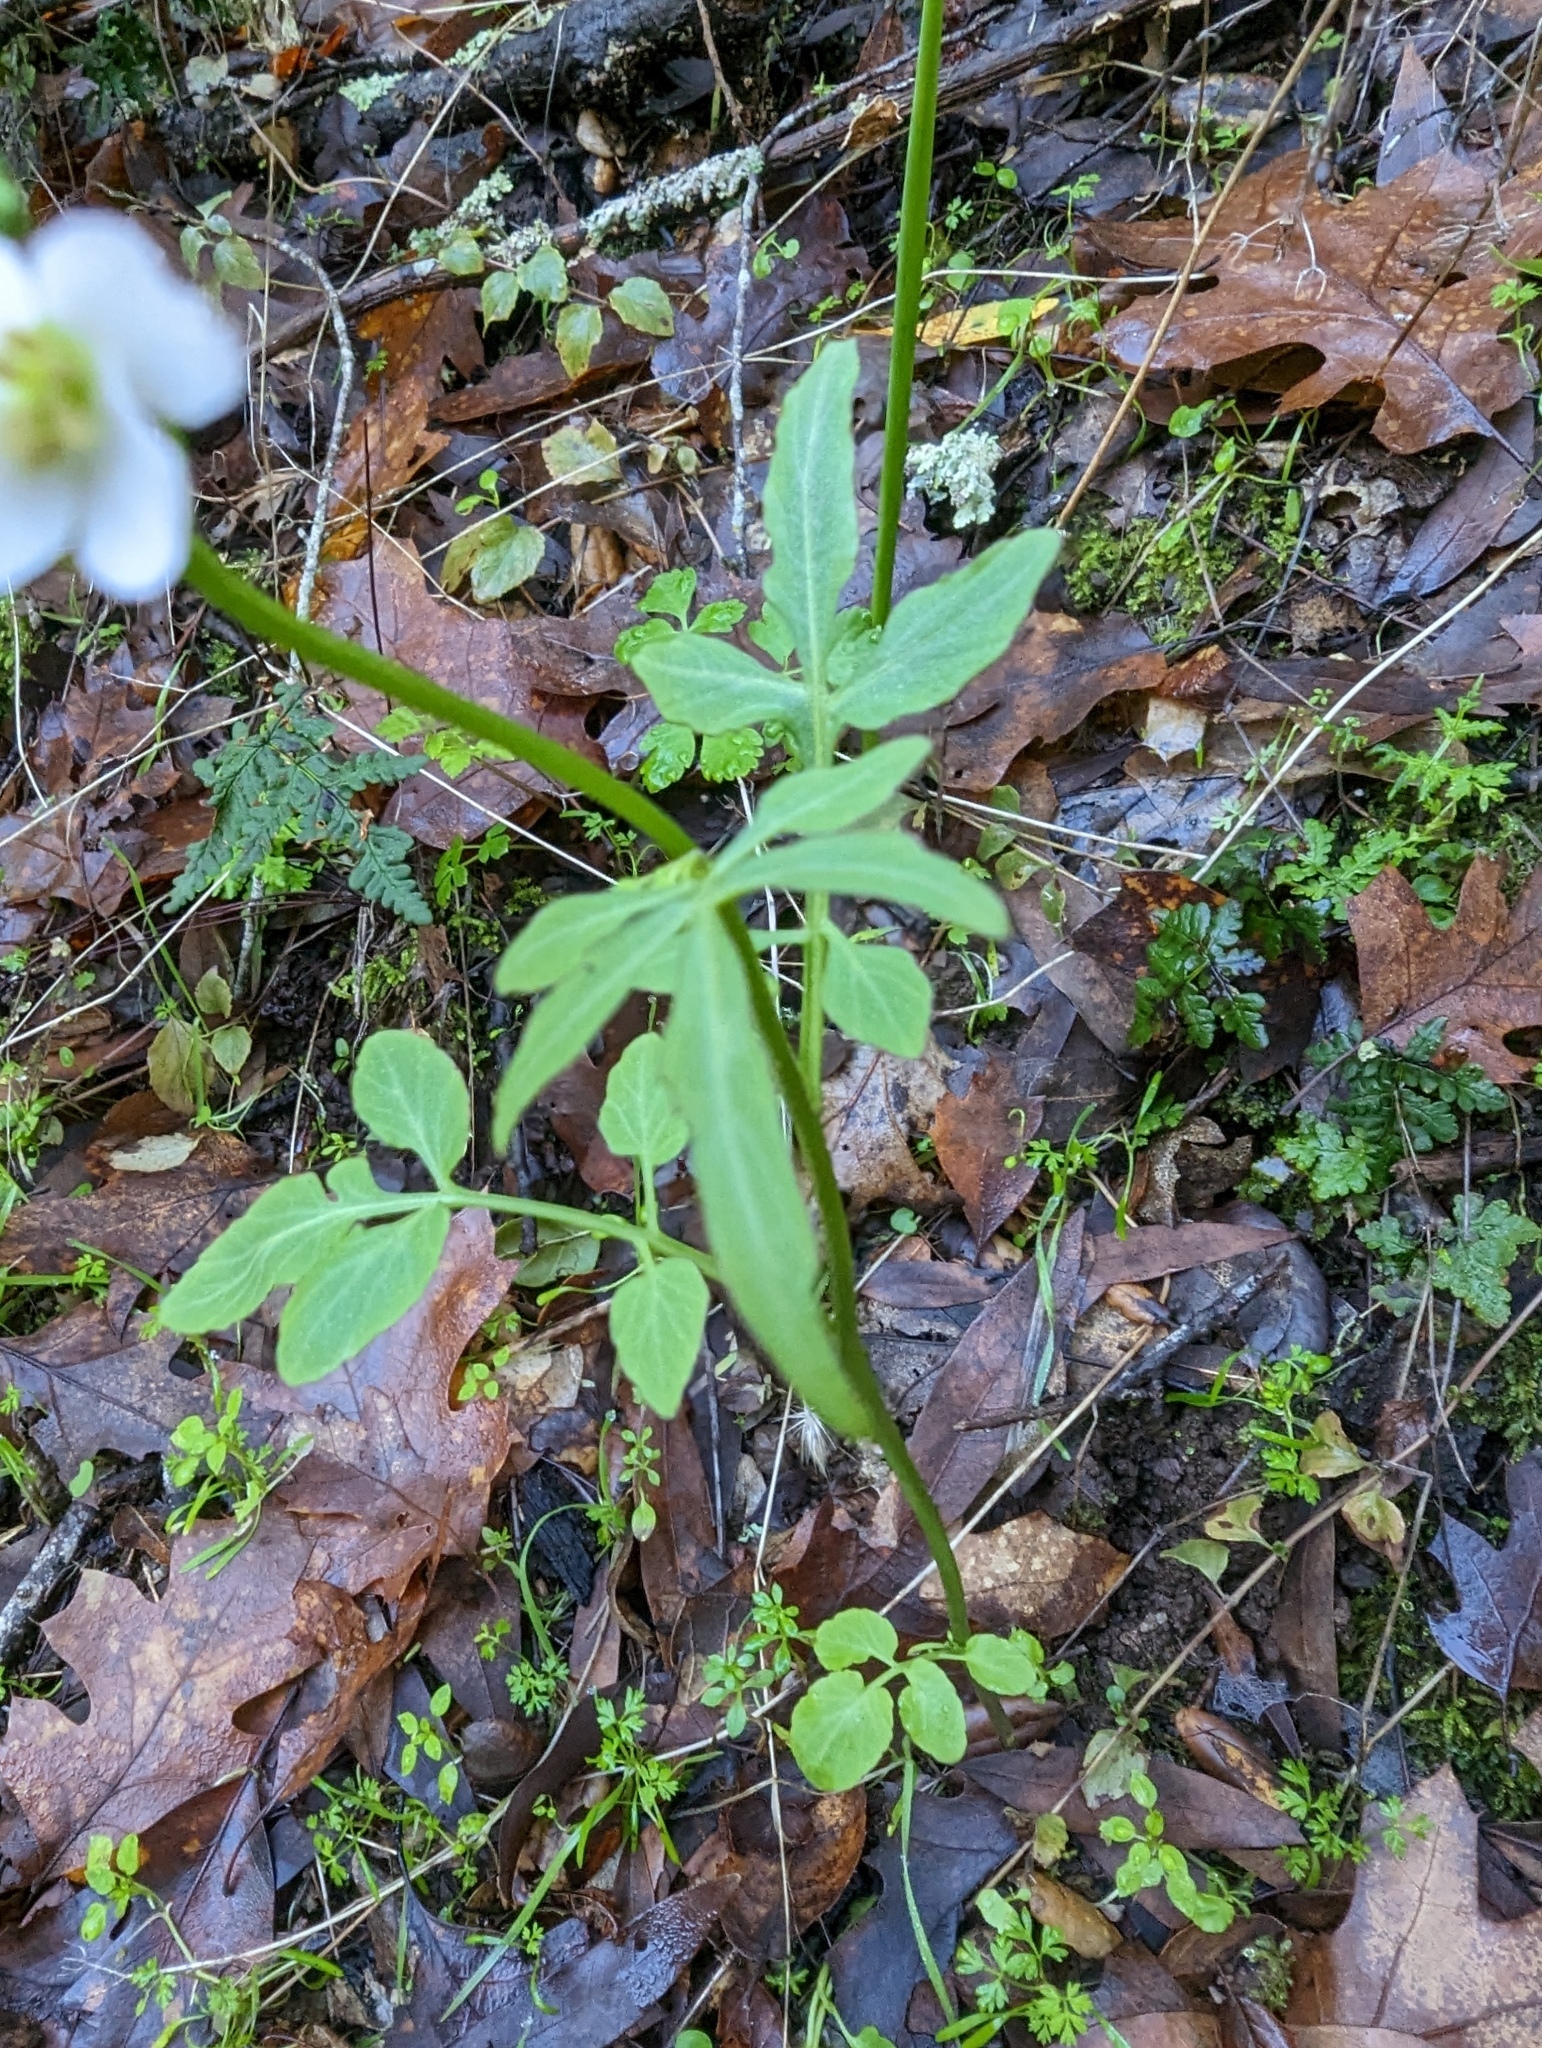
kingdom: Plantae
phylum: Tracheophyta
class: Magnoliopsida
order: Brassicales
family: Brassicaceae
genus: Cardamine
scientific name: Cardamine californica
